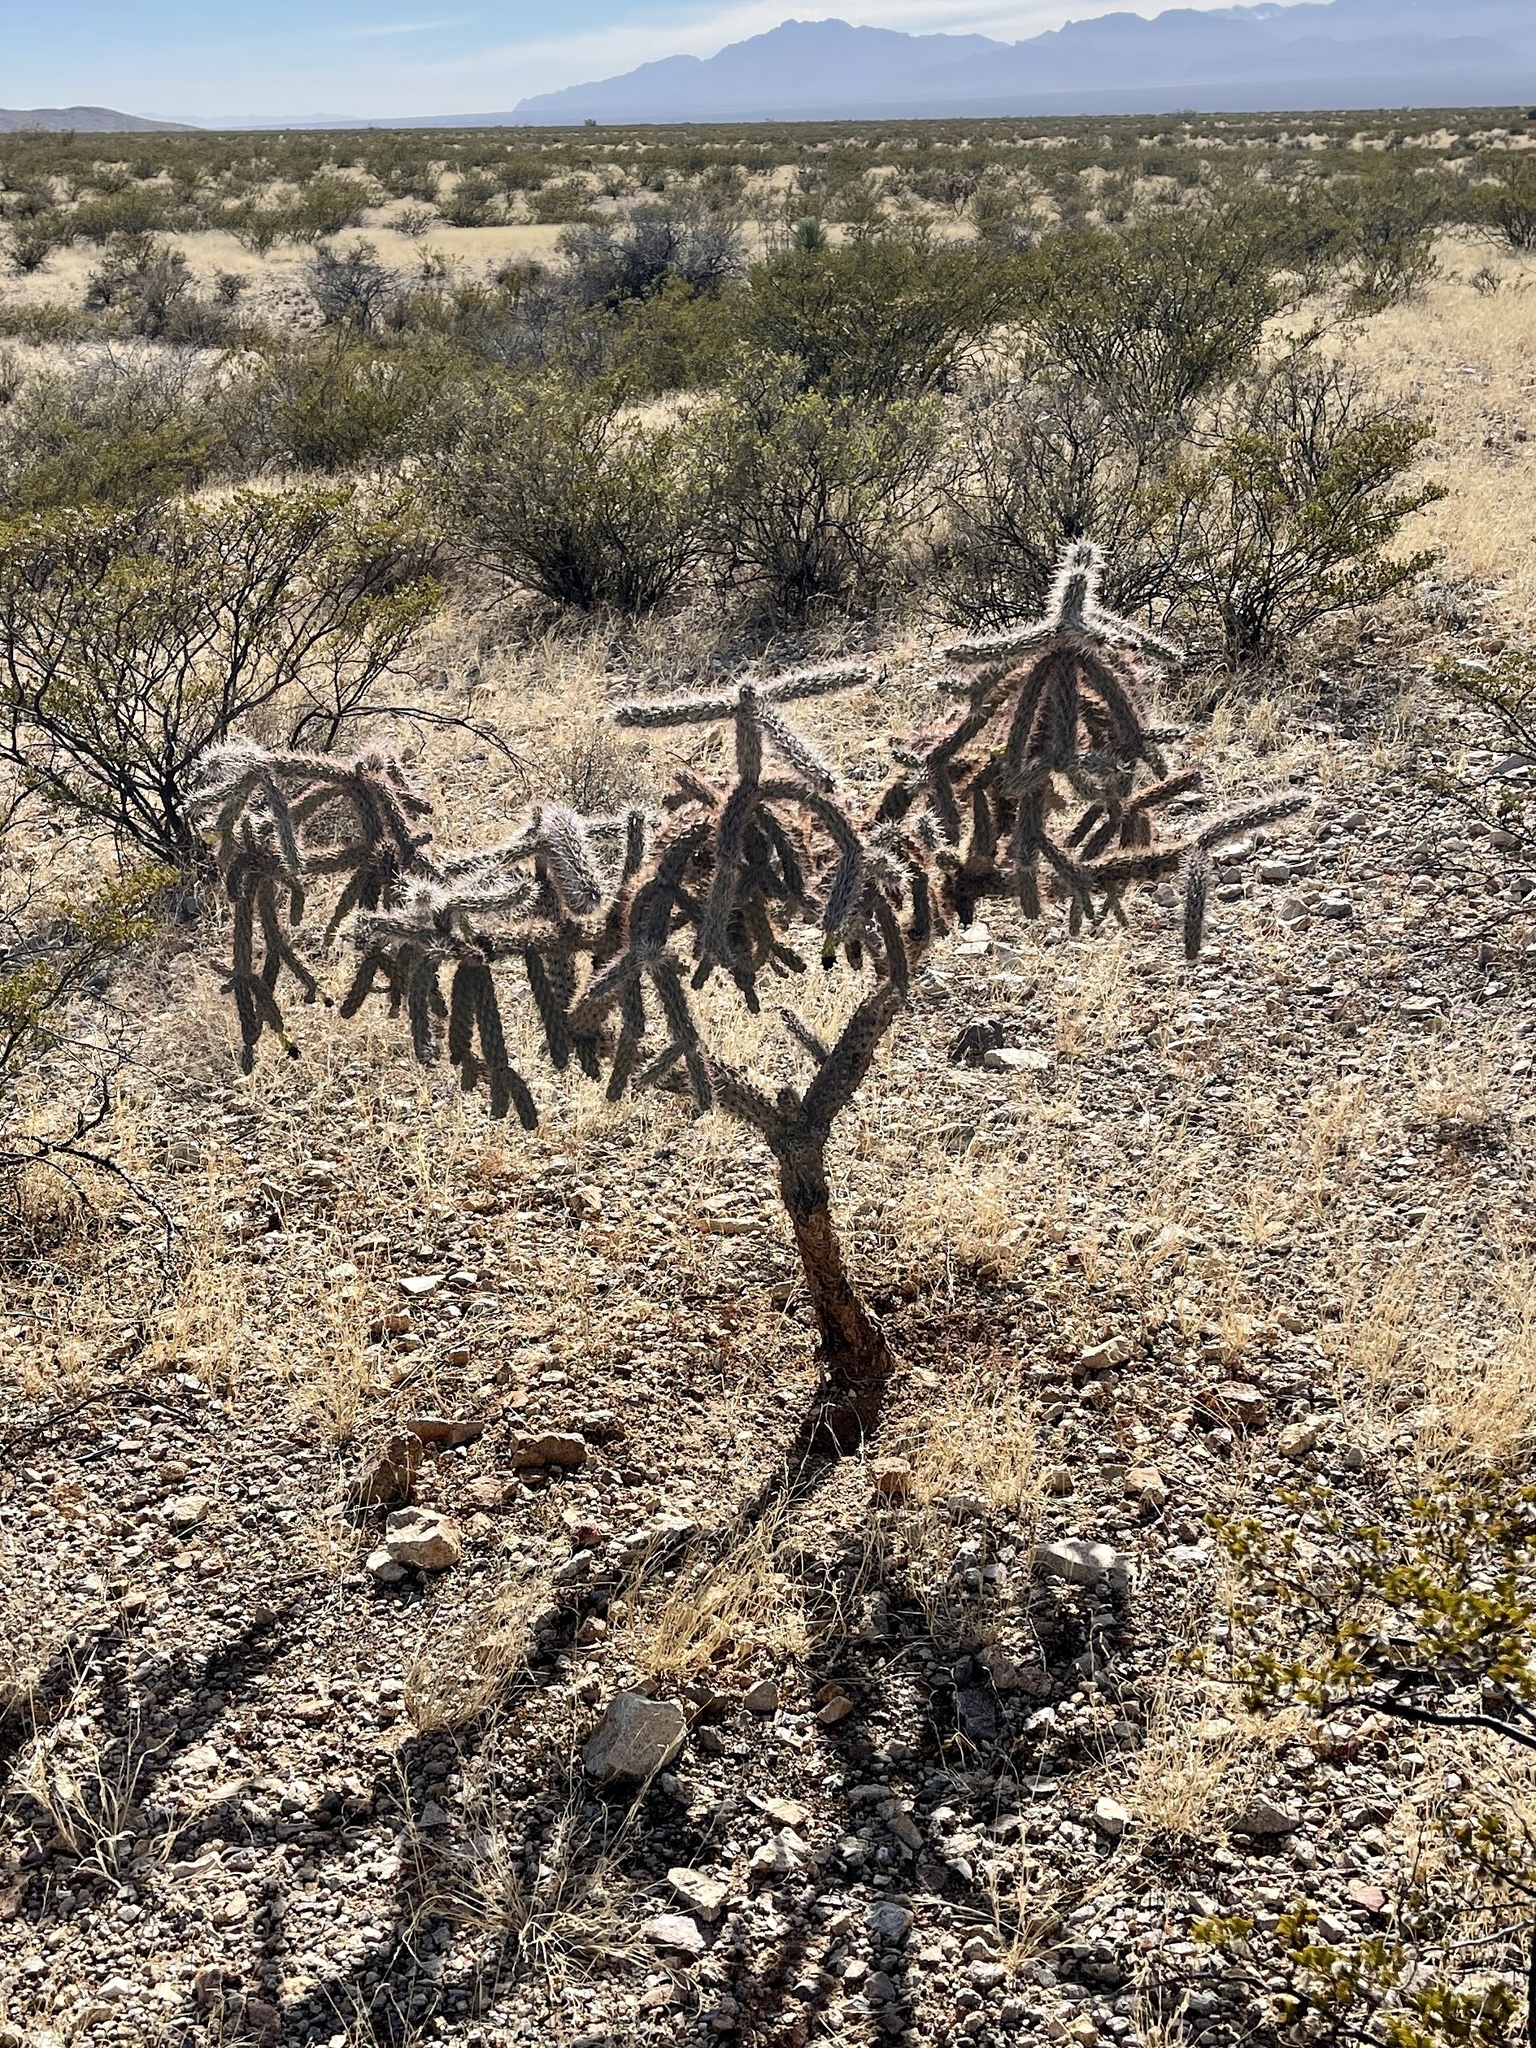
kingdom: Plantae
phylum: Tracheophyta
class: Magnoliopsida
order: Caryophyllales
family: Cactaceae
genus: Cylindropuntia
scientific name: Cylindropuntia imbricata
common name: Candelabrum cactus
